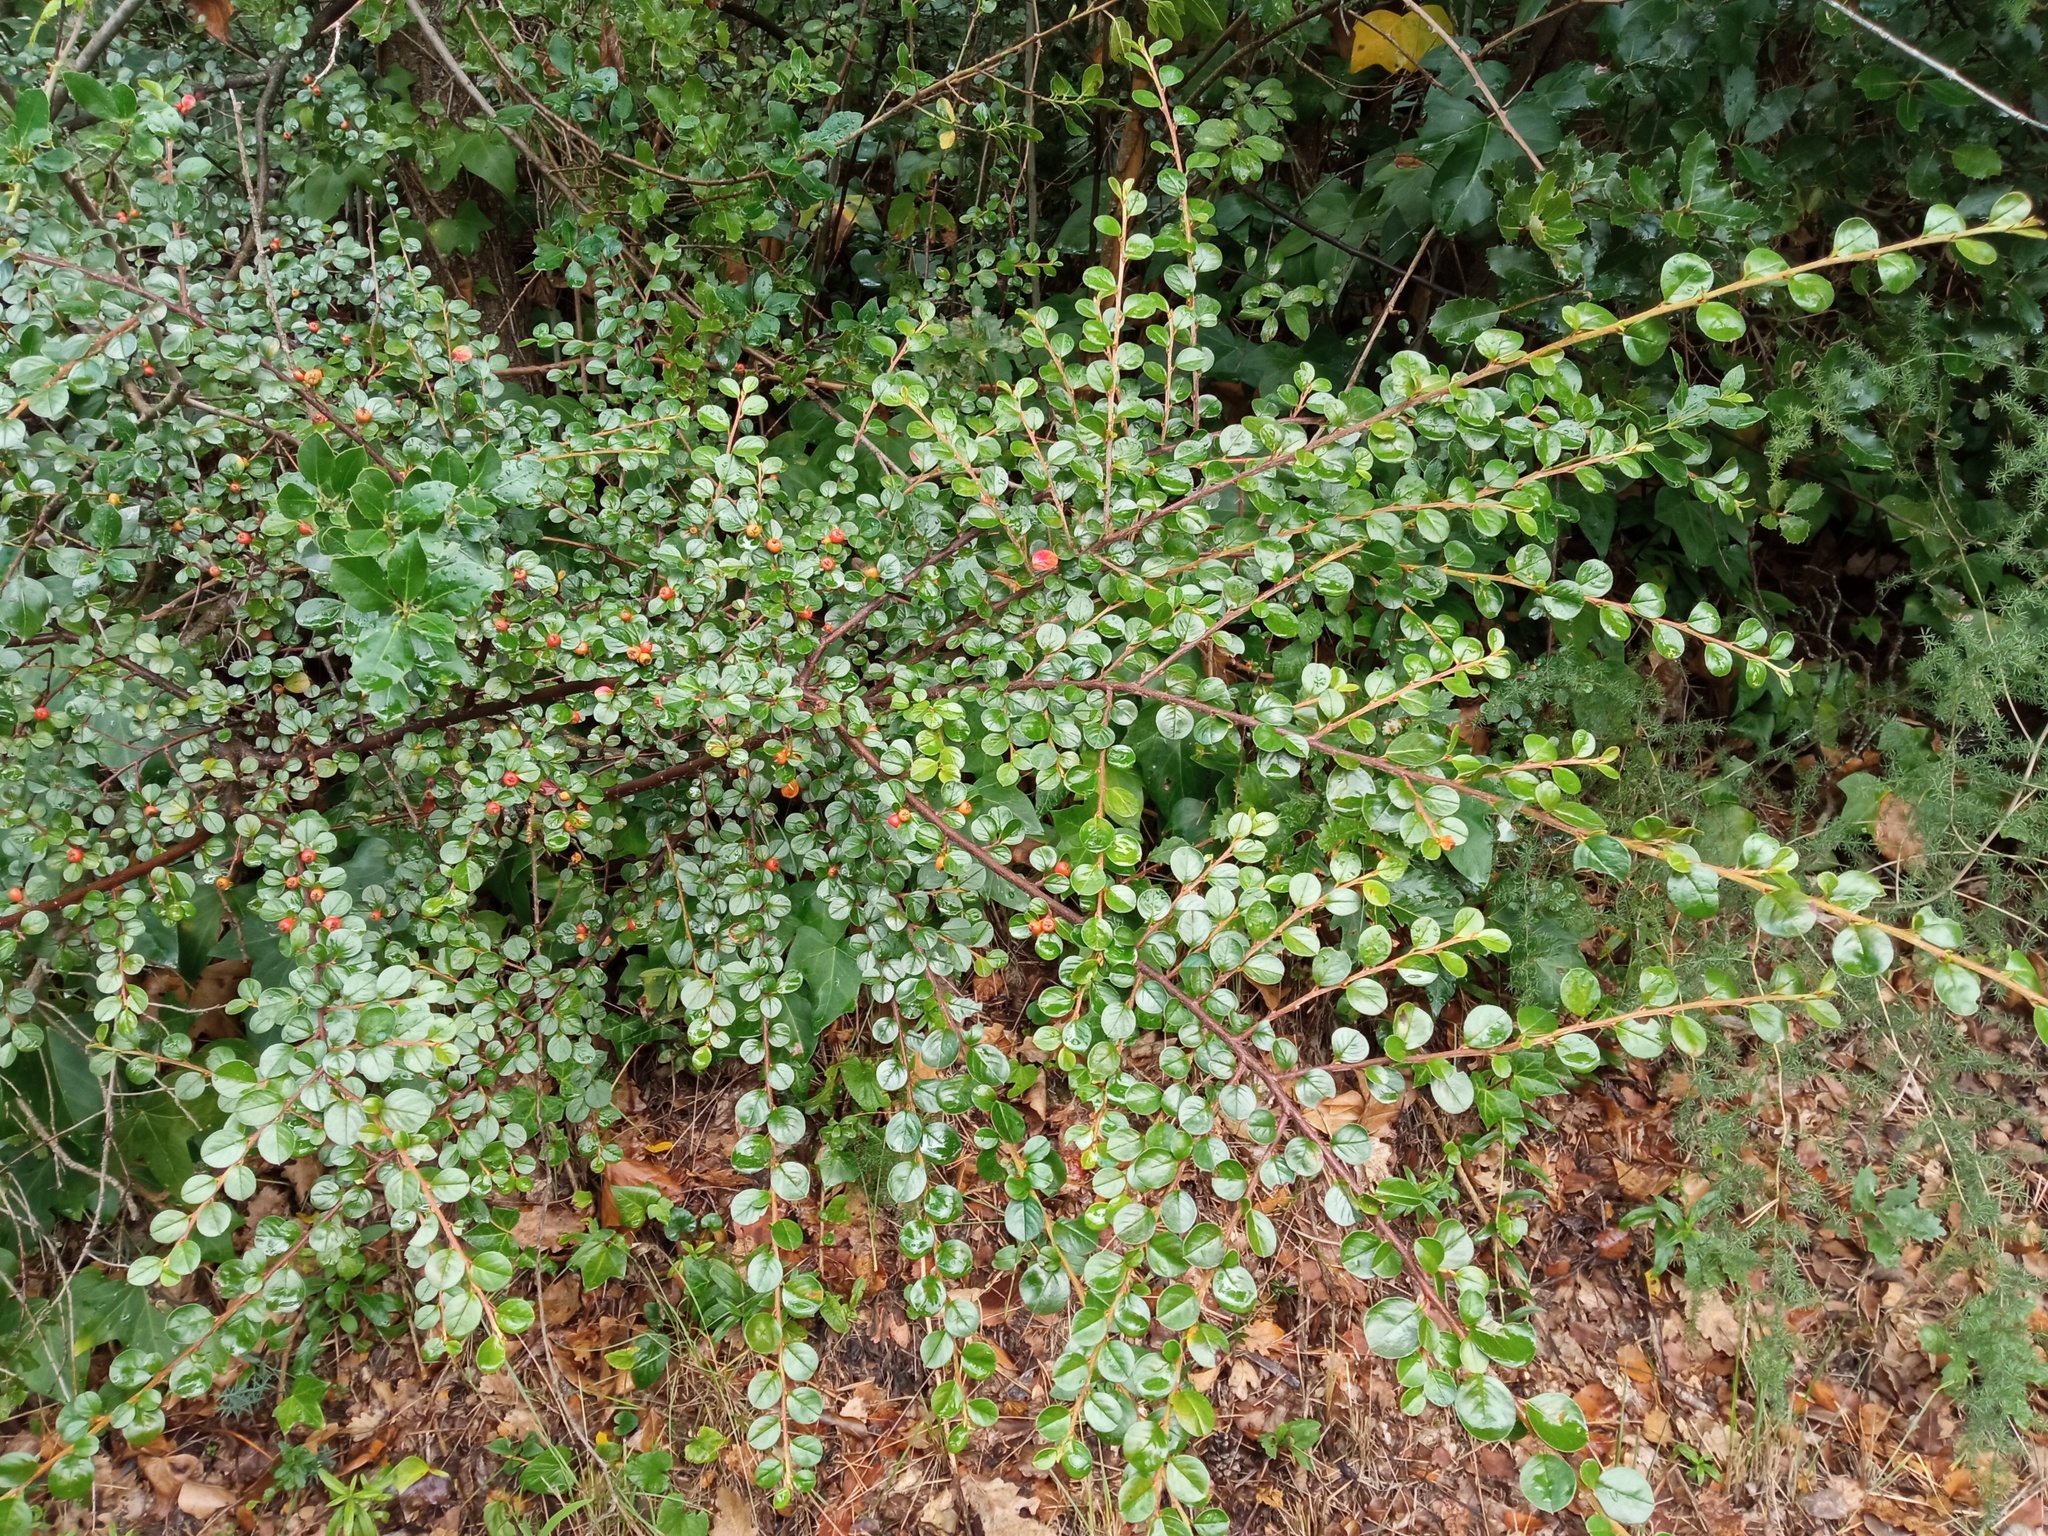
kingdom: Plantae
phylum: Tracheophyta
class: Magnoliopsida
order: Rosales
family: Rosaceae
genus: Cotoneaster
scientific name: Cotoneaster hjelmqvistii
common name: Hjelmqvist's cotoneaster
